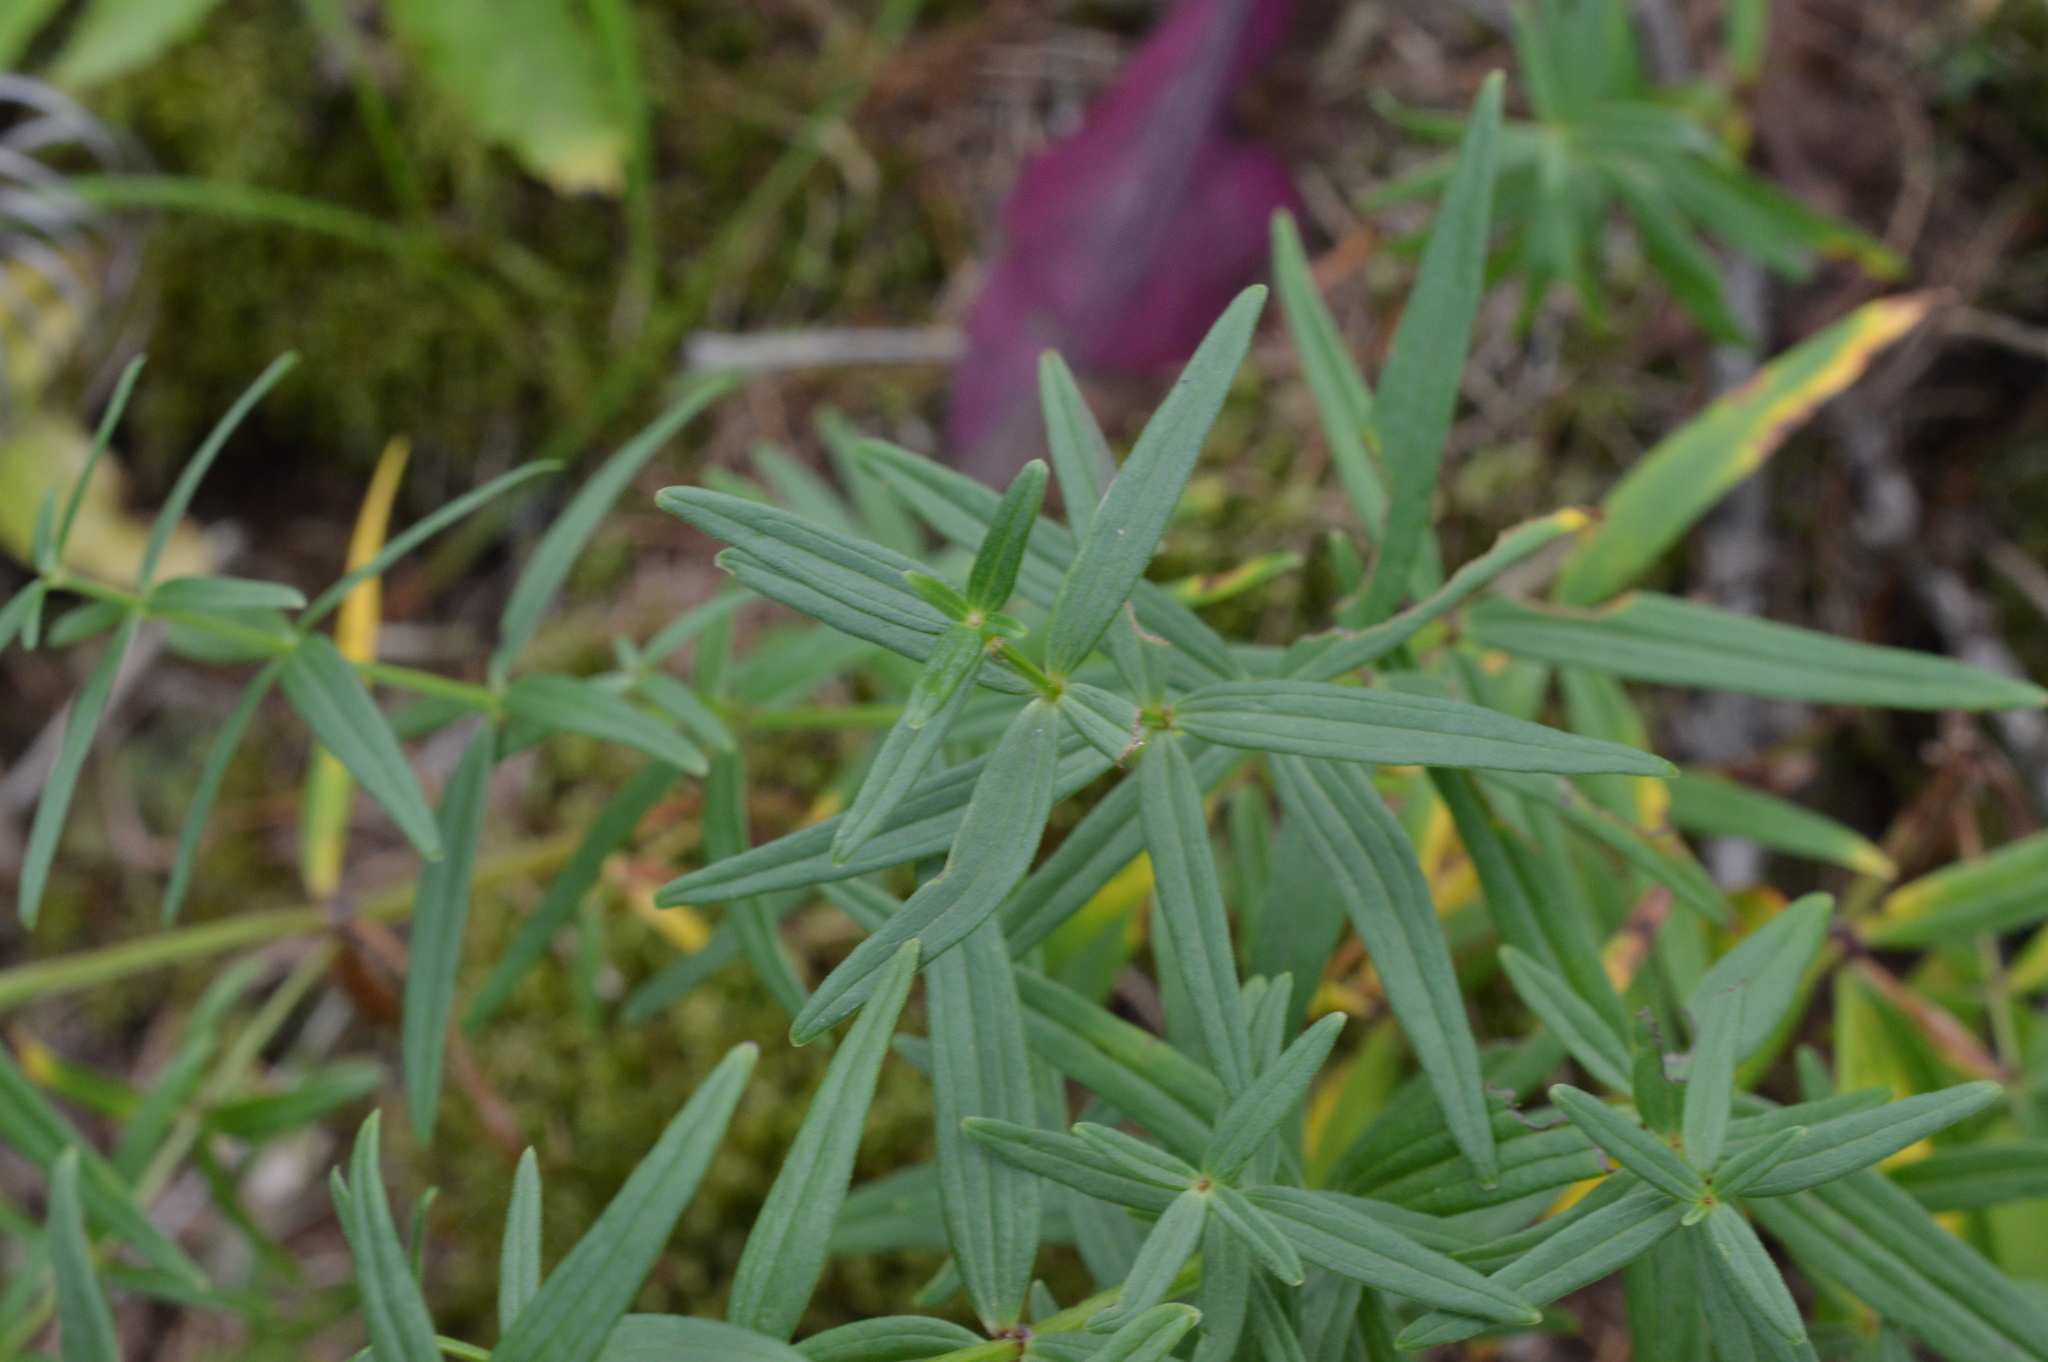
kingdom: Plantae
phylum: Tracheophyta
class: Magnoliopsida
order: Gentianales
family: Rubiaceae
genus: Galium
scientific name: Galium boreale
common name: Northern bedstraw
